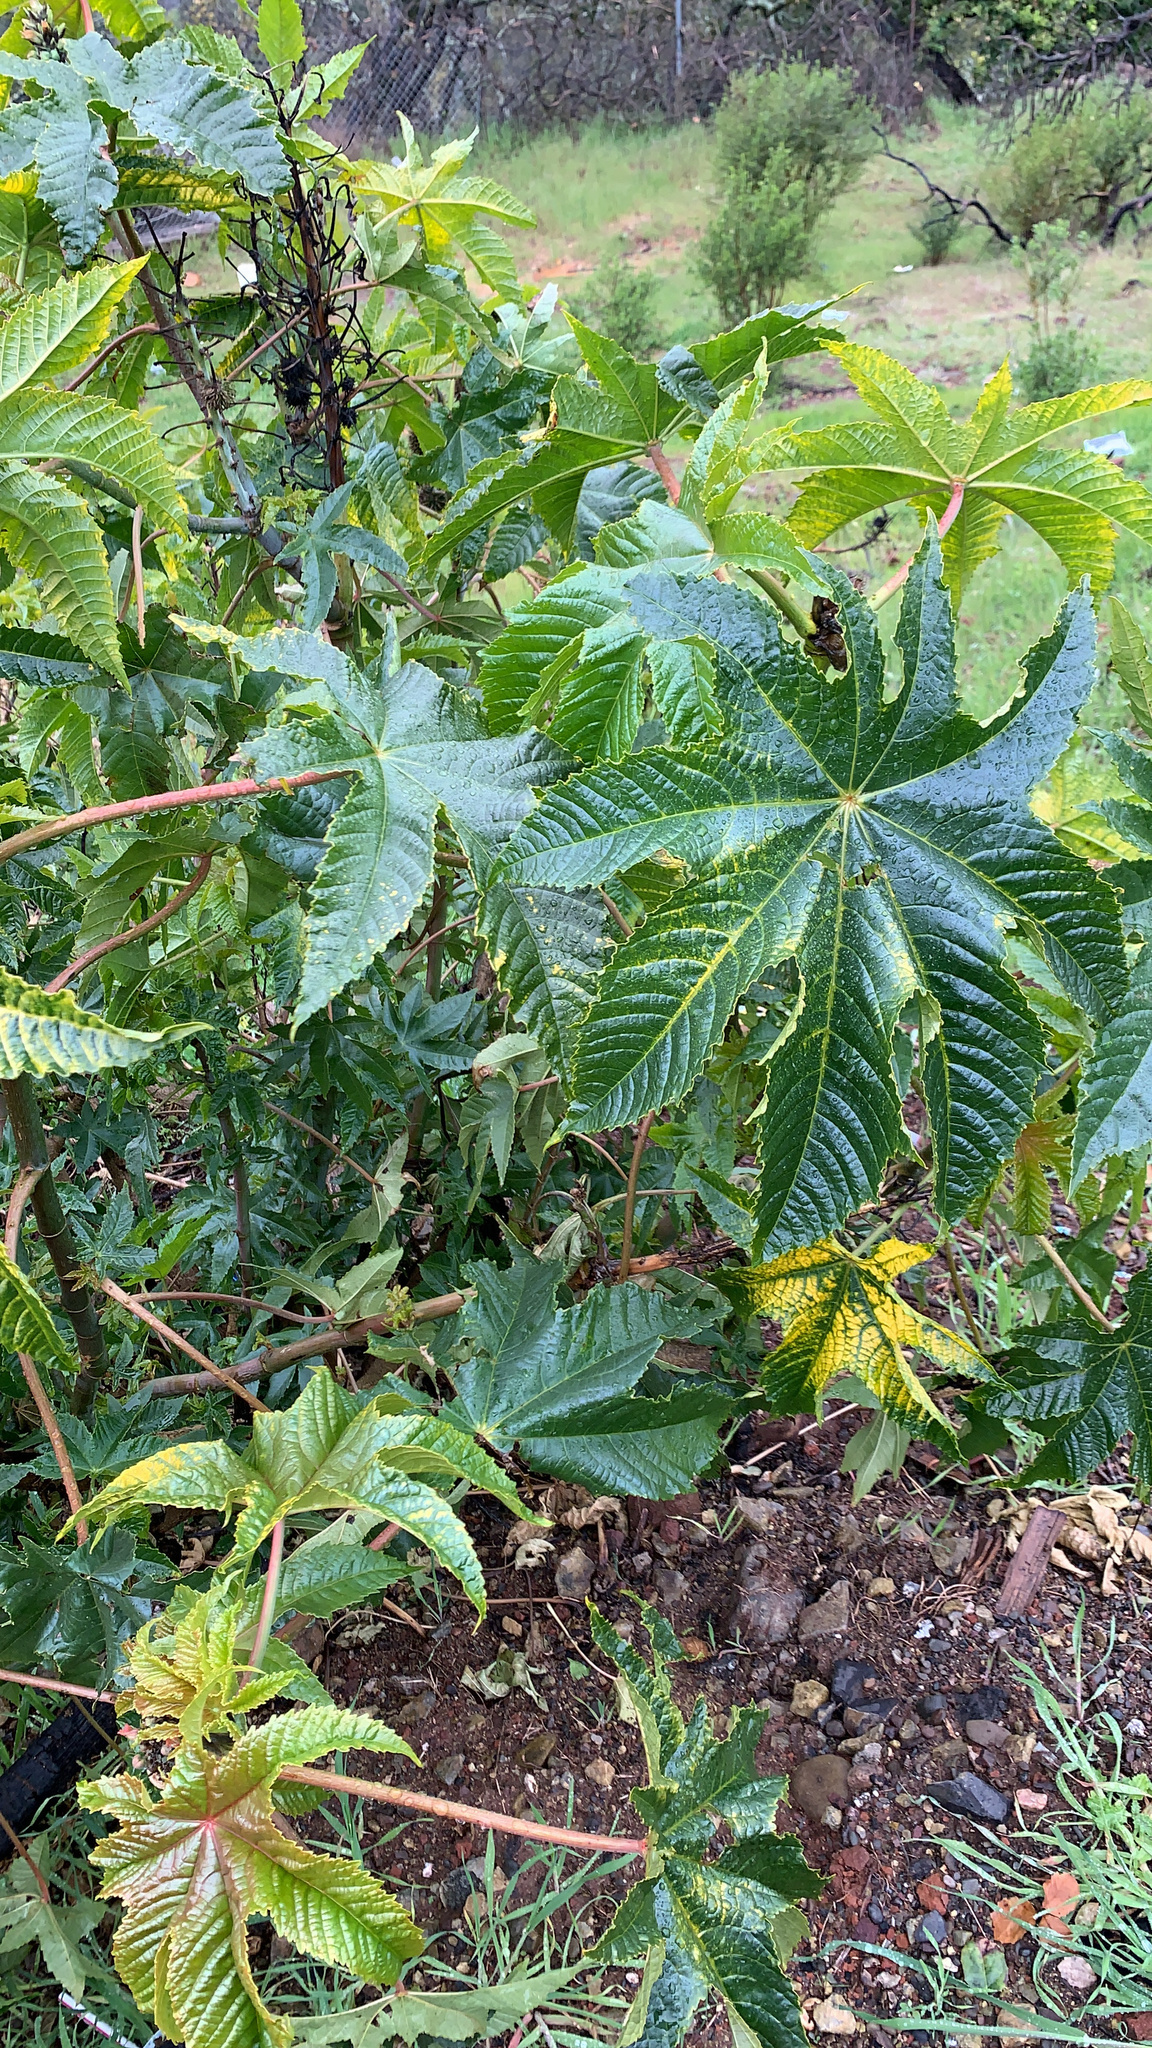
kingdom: Plantae
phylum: Tracheophyta
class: Magnoliopsida
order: Malpighiales
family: Euphorbiaceae
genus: Ricinus
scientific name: Ricinus communis
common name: Castor-oil-plant
